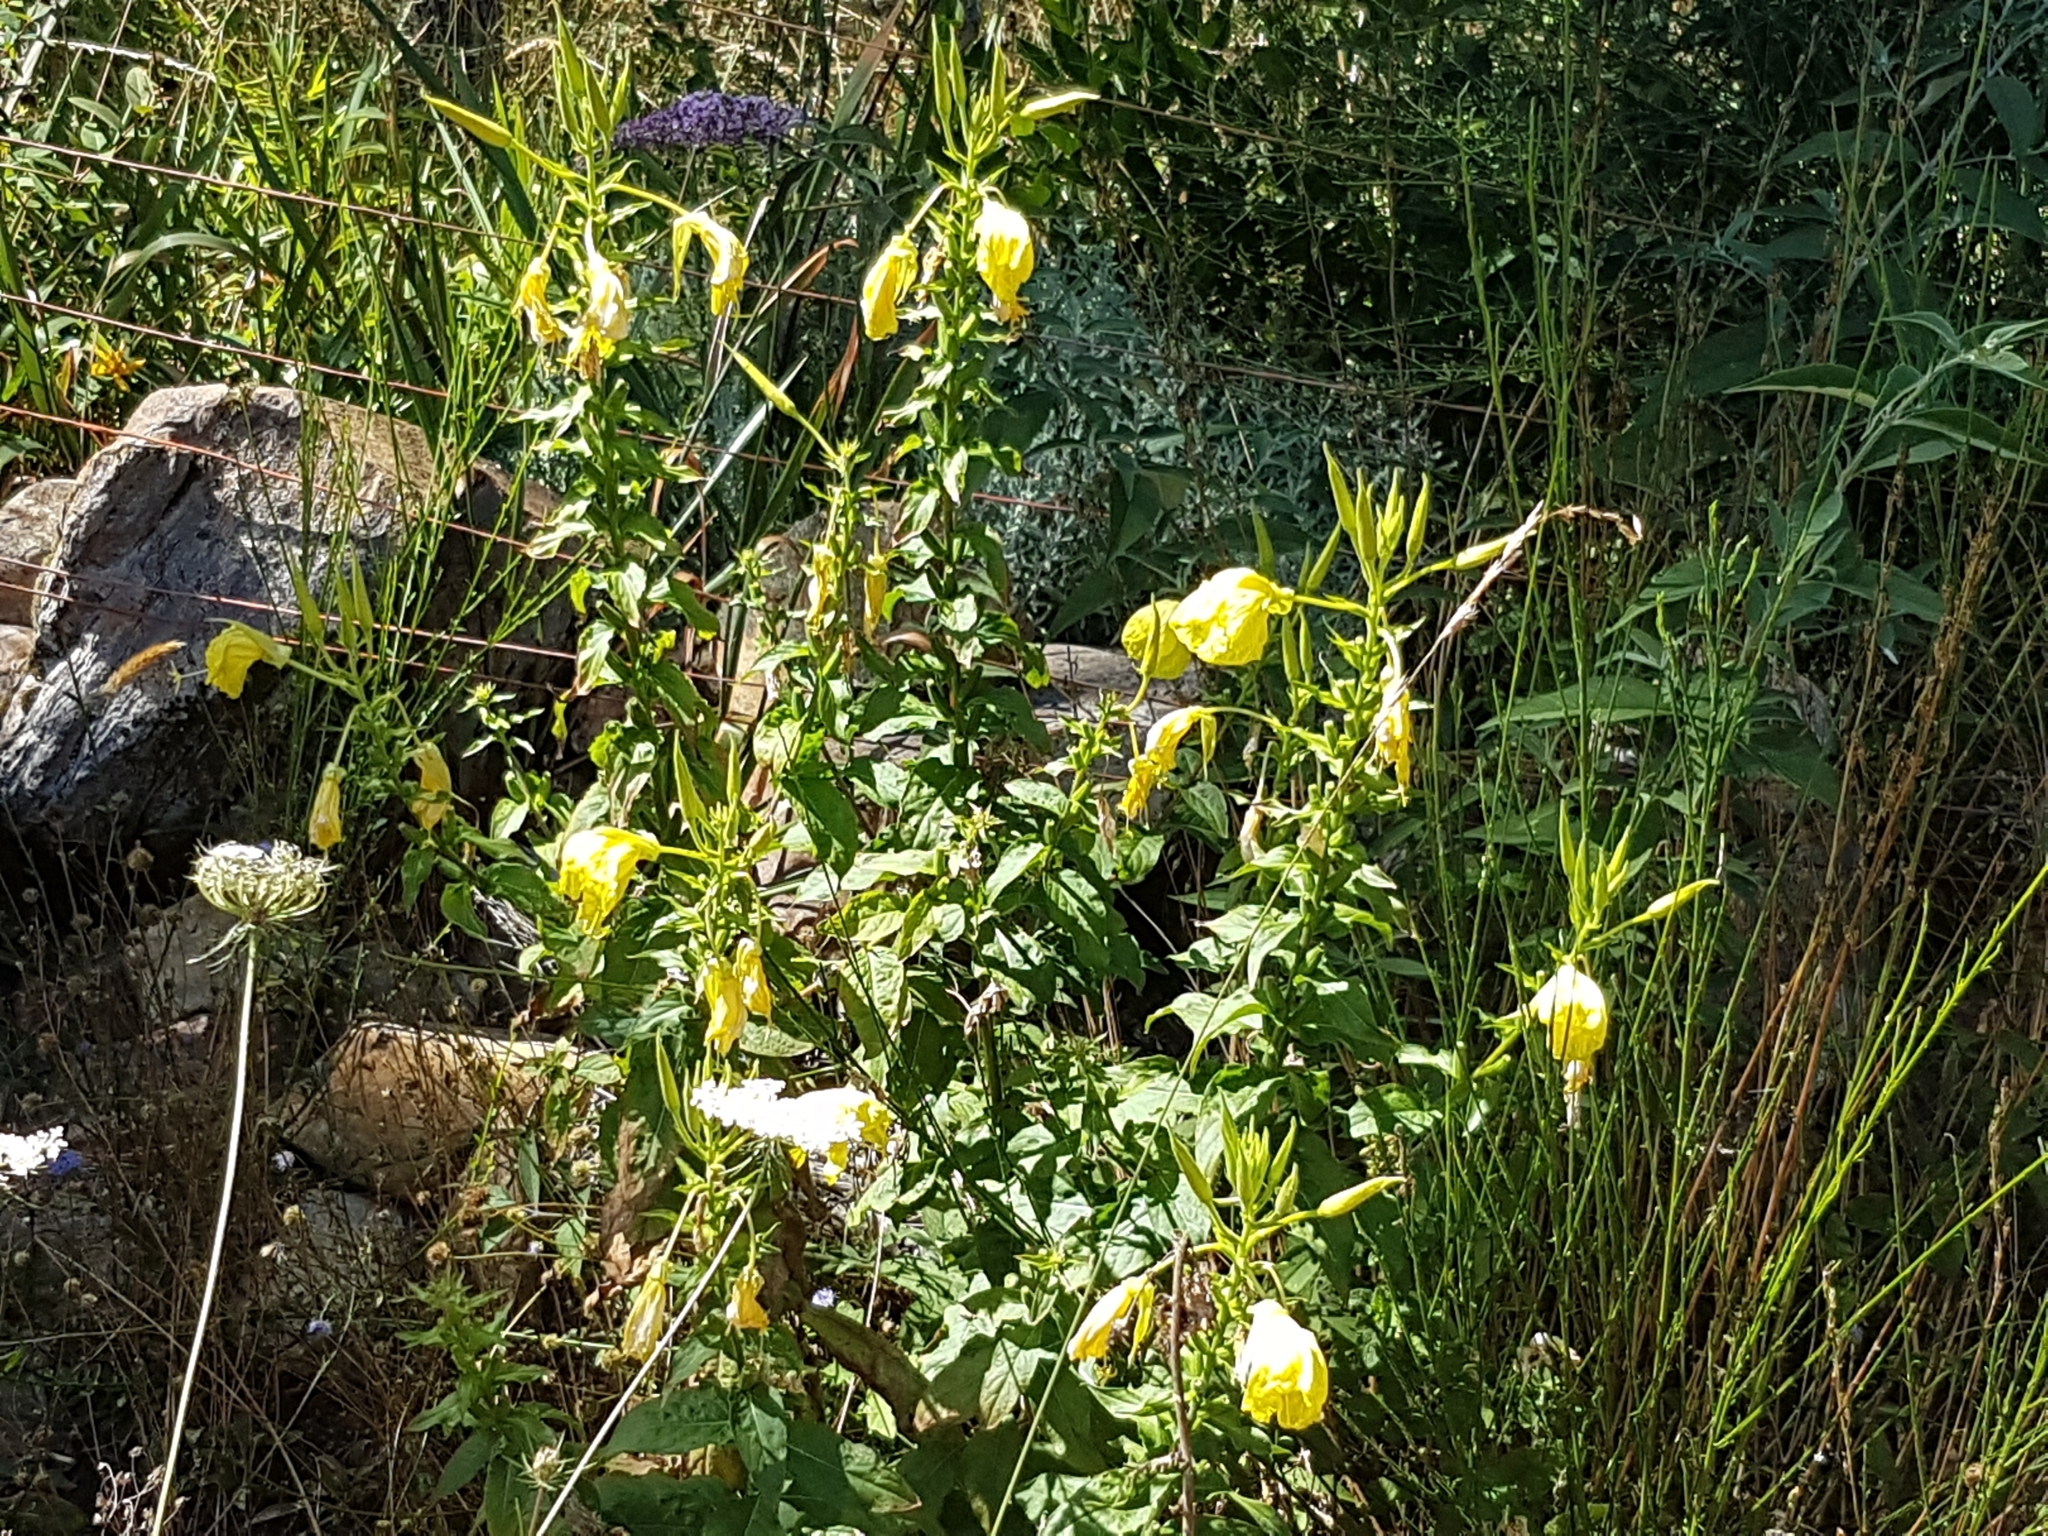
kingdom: Plantae
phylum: Tracheophyta
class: Magnoliopsida
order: Myrtales
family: Onagraceae
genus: Oenothera
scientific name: Oenothera glazioviana
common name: Large-flowered evening-primrose
